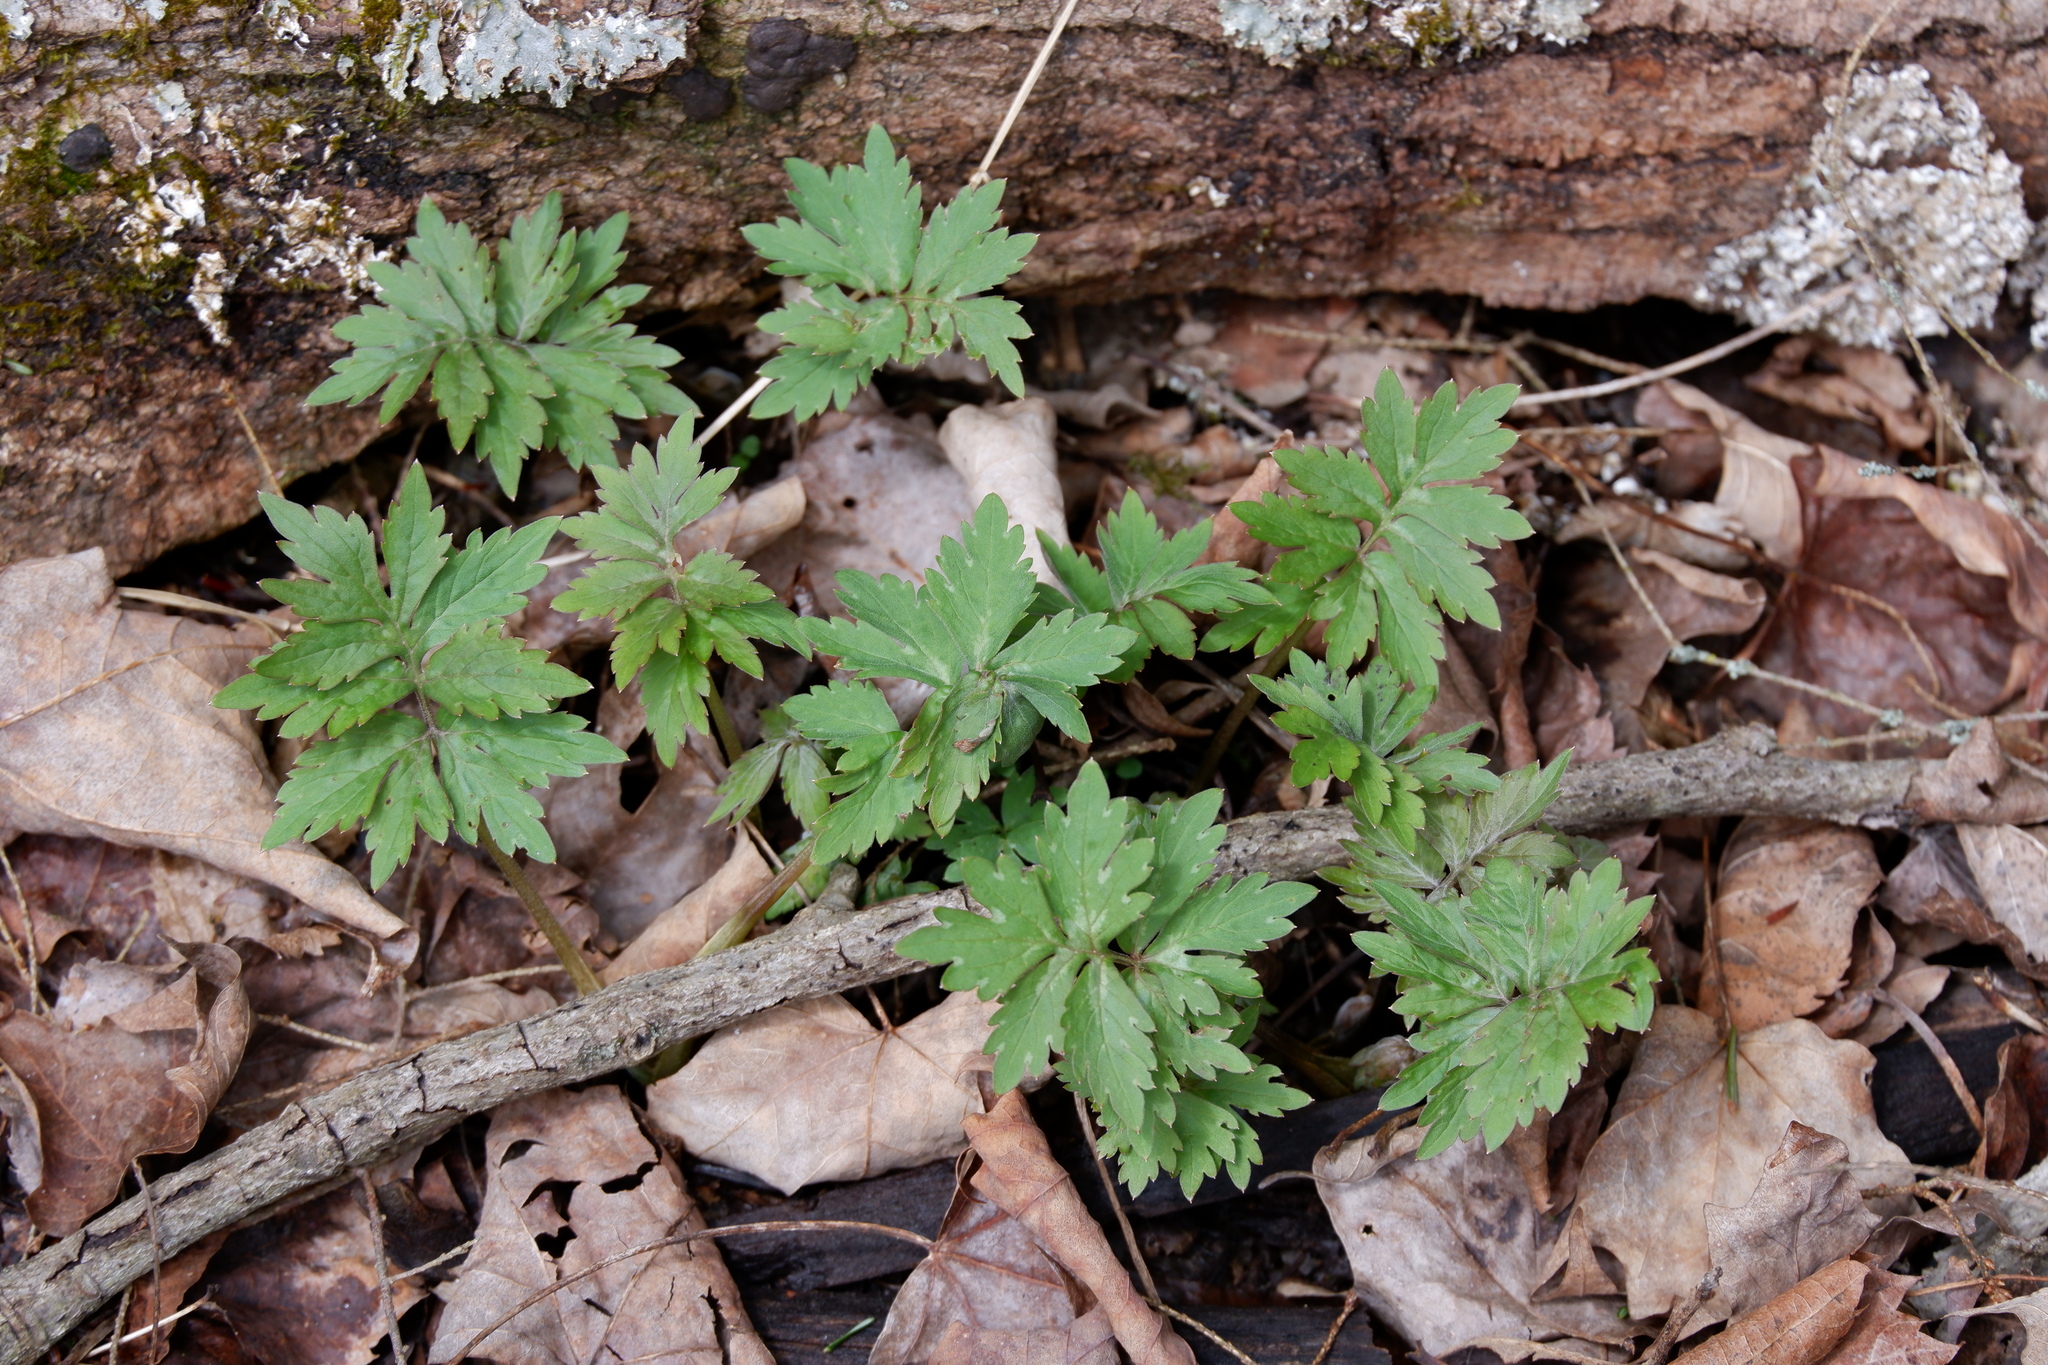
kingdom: Plantae
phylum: Tracheophyta
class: Magnoliopsida
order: Boraginales
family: Hydrophyllaceae
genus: Hydrophyllum
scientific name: Hydrophyllum virginianum
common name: Virginia waterleaf
